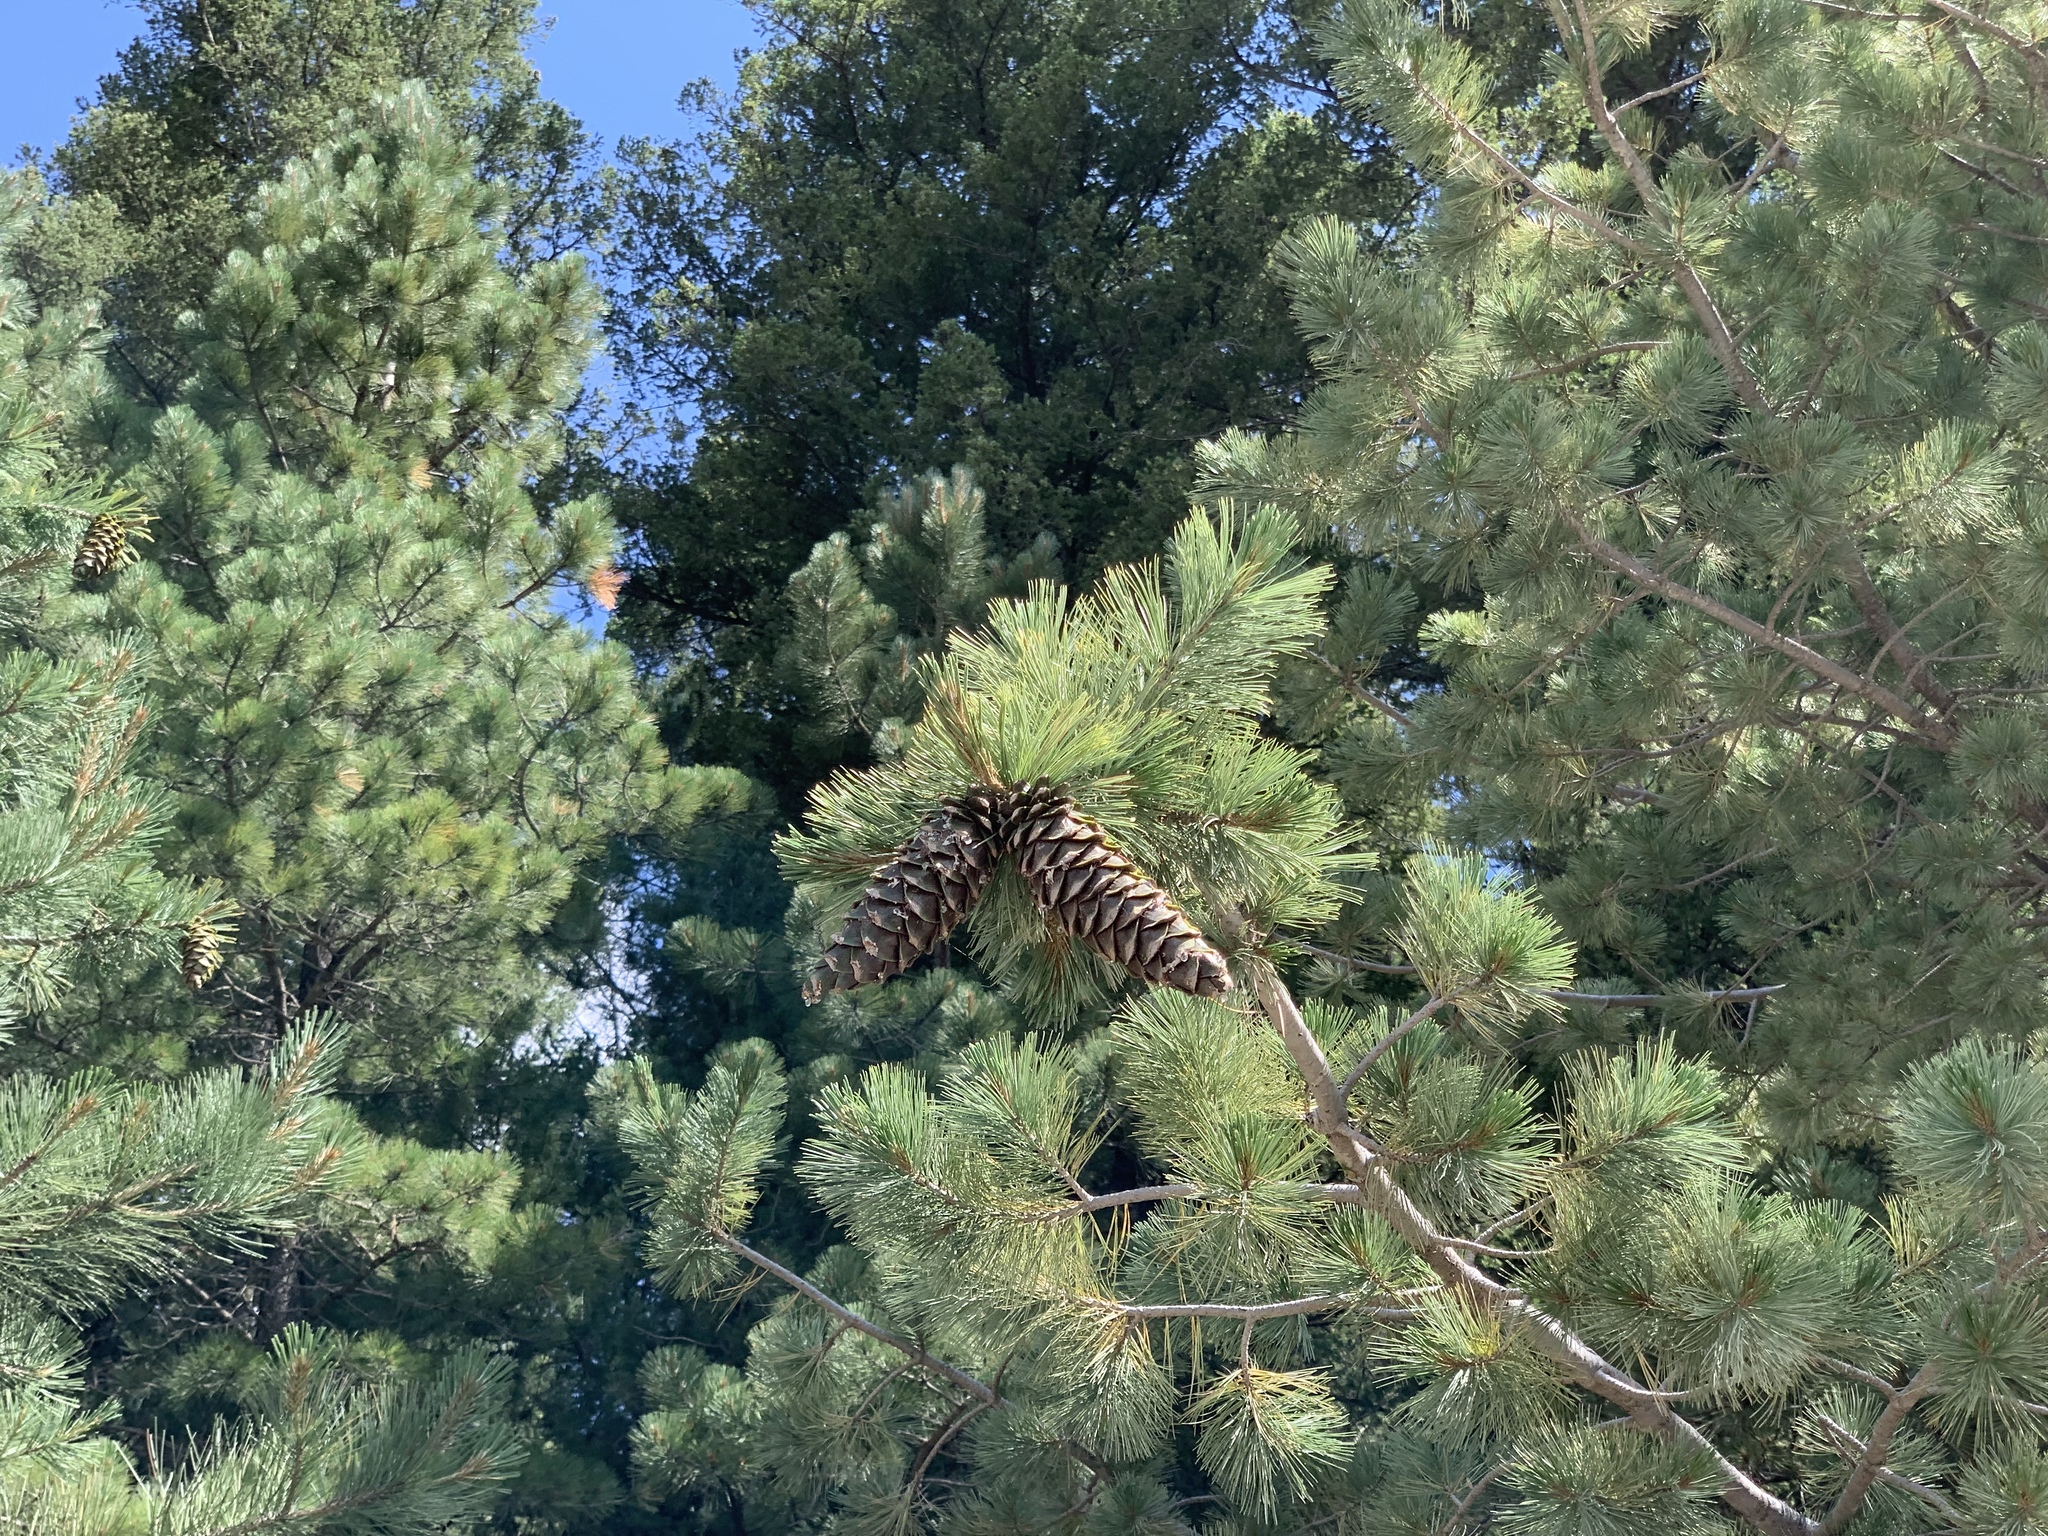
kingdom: Plantae
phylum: Tracheophyta
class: Pinopsida
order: Pinales
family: Pinaceae
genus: Pinus
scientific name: Pinus strobiformis
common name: Southwestern white pine
